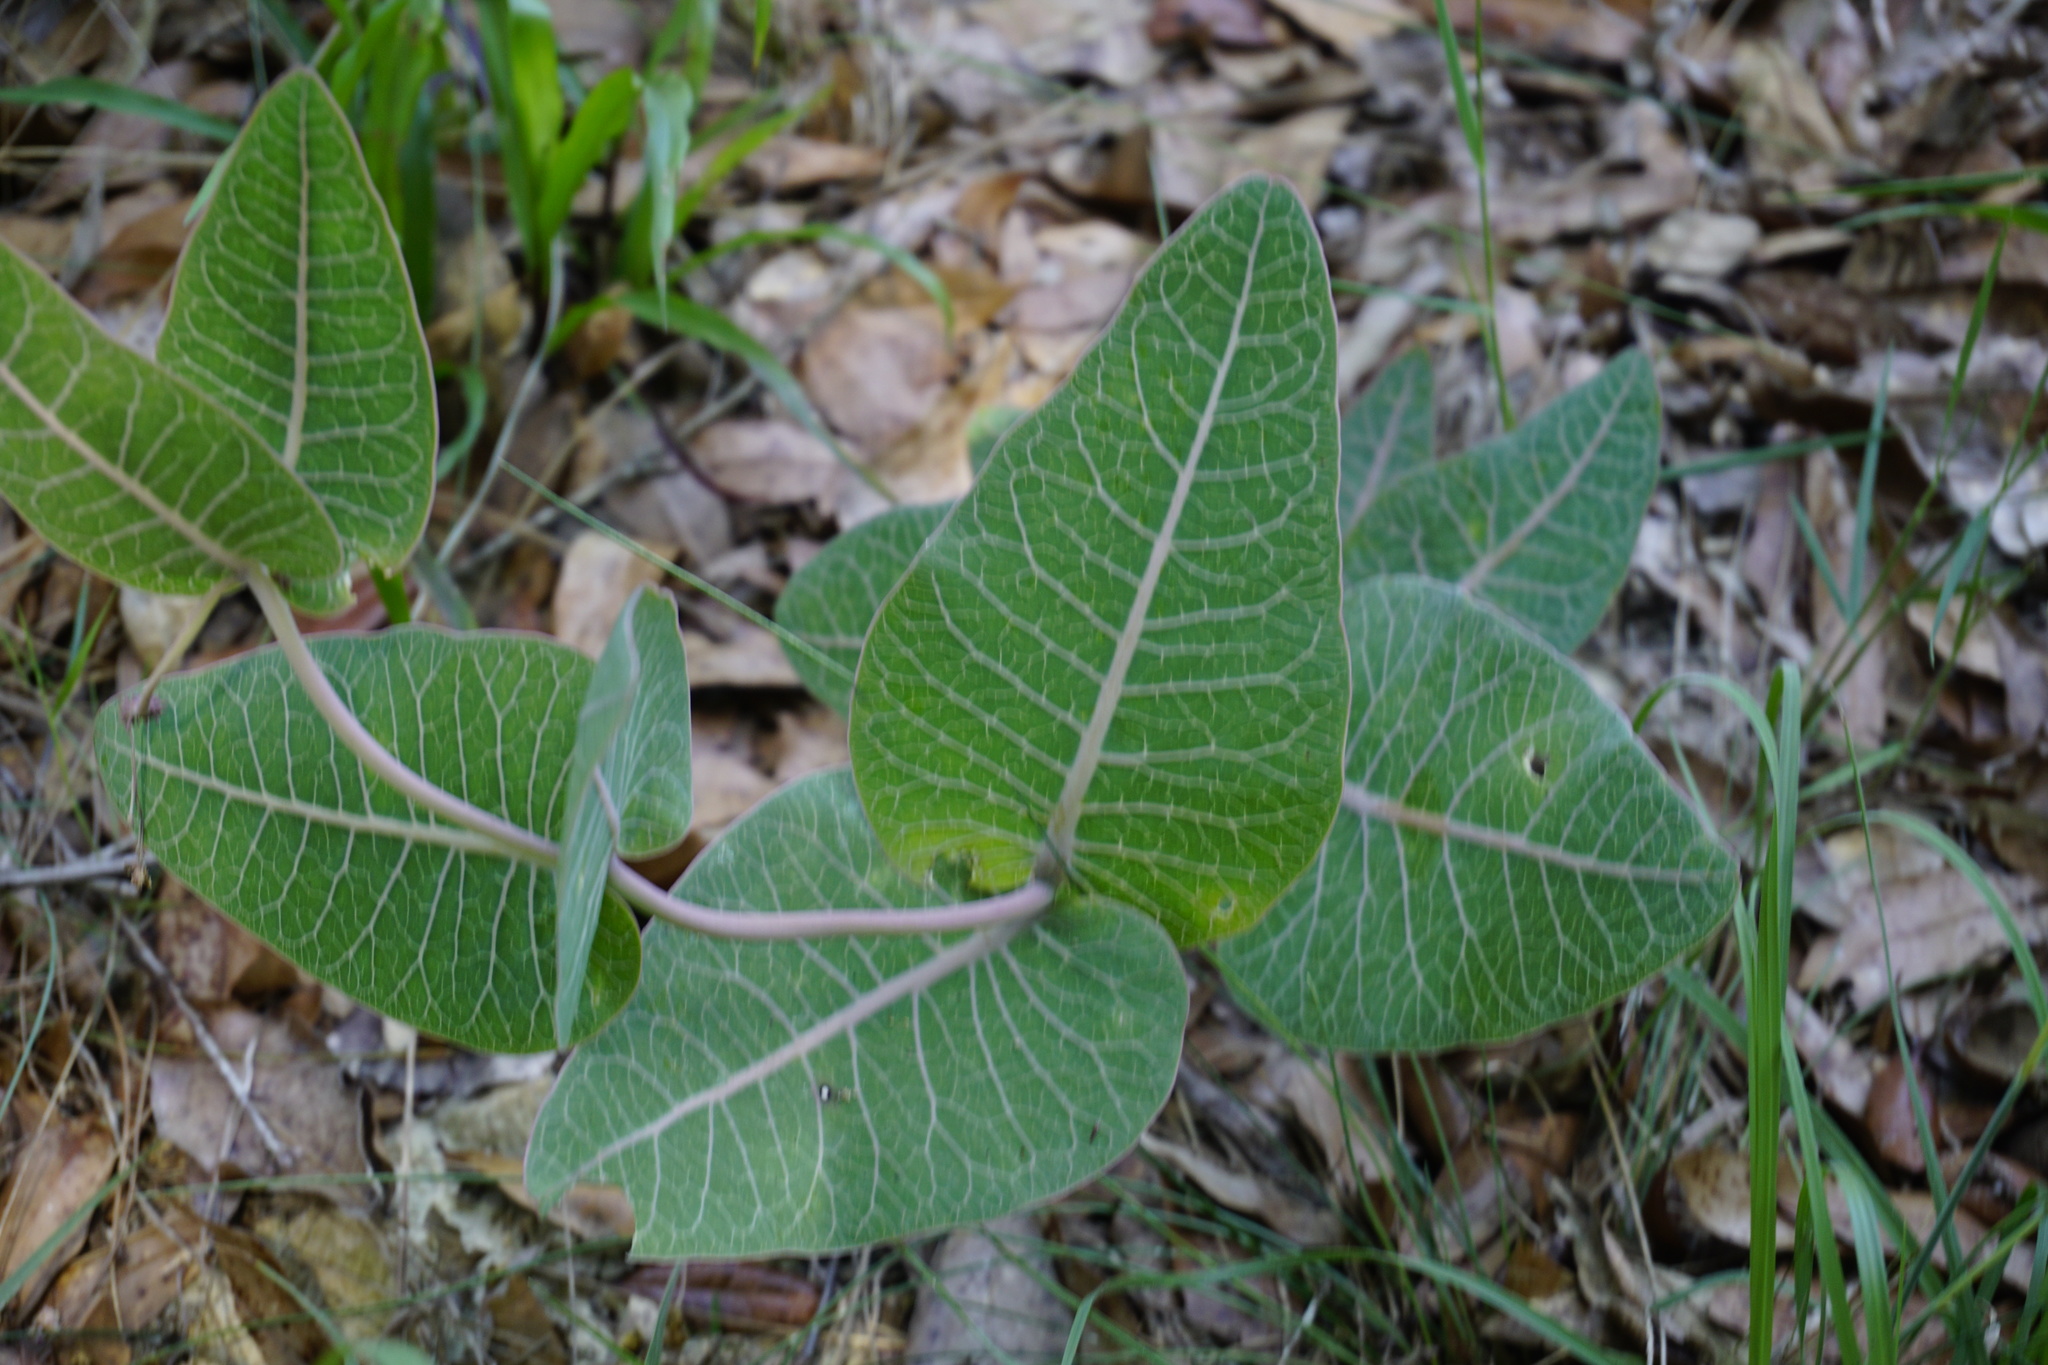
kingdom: Plantae
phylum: Tracheophyta
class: Magnoliopsida
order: Gentianales
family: Apocynaceae
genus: Asclepias
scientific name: Asclepias humistrata
